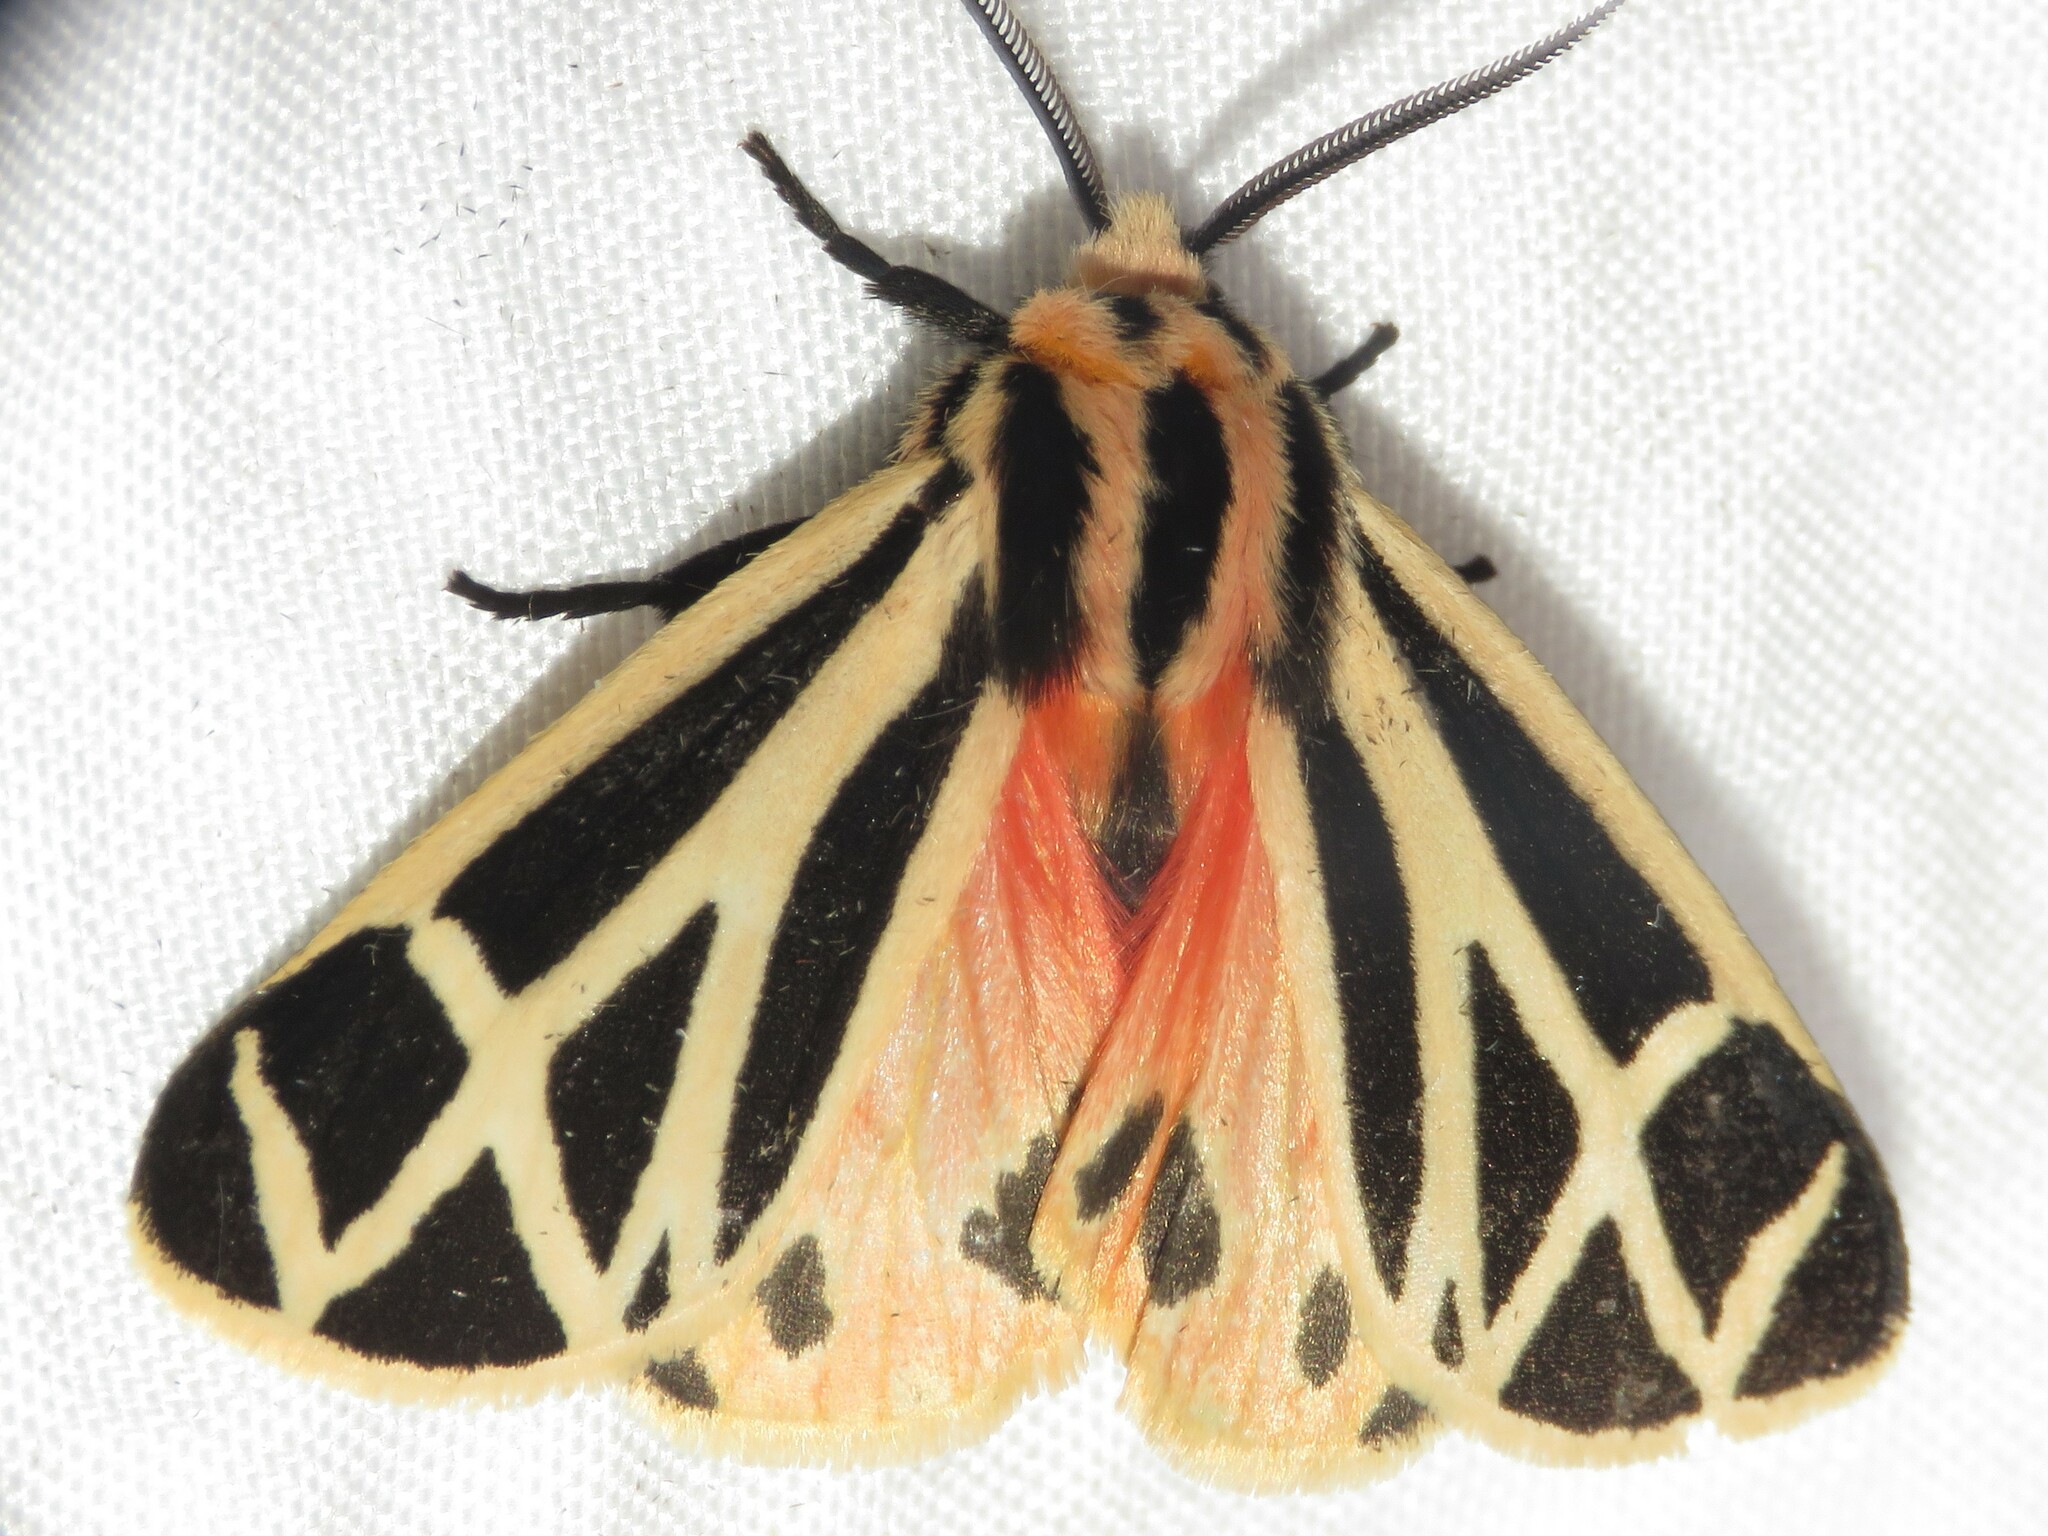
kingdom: Animalia
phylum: Arthropoda
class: Insecta
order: Lepidoptera
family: Erebidae
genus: Apantesis
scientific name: Apantesis phalerata
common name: Harnessed tiger moth
